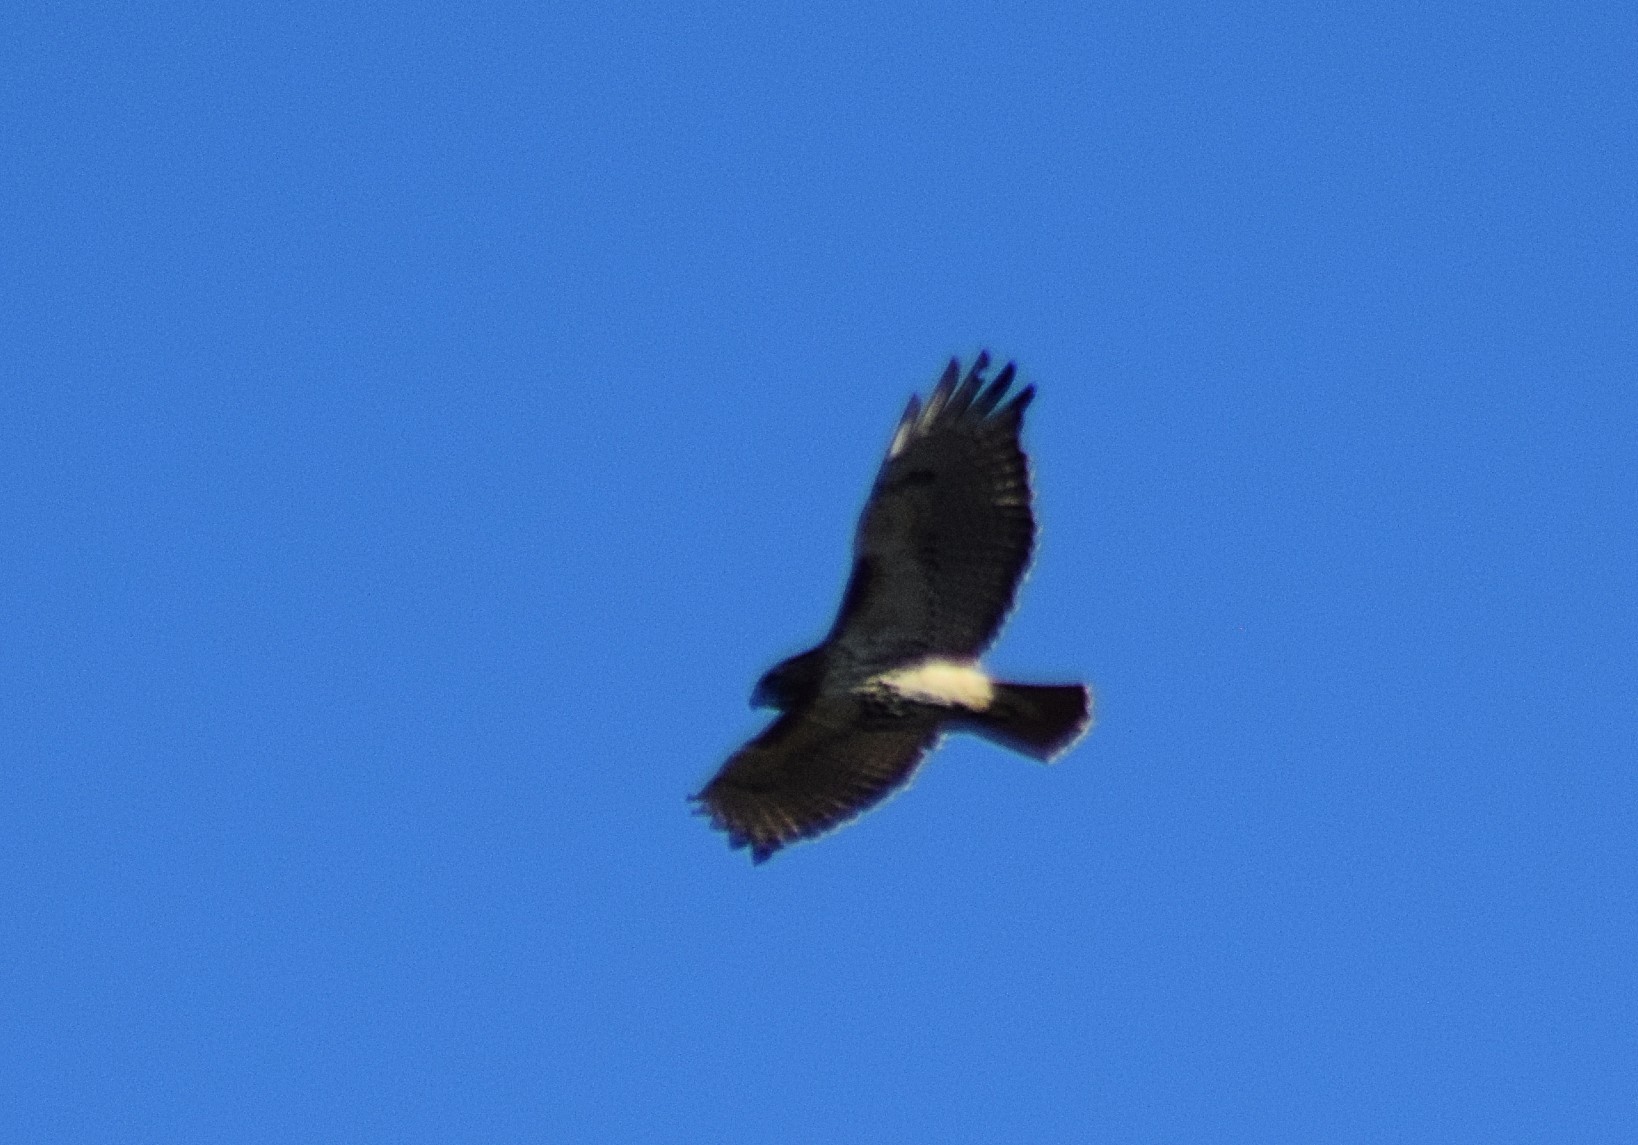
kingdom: Animalia
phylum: Chordata
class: Aves
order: Accipitriformes
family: Accipitridae
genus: Buteo
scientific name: Buteo jamaicensis
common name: Red-tailed hawk
